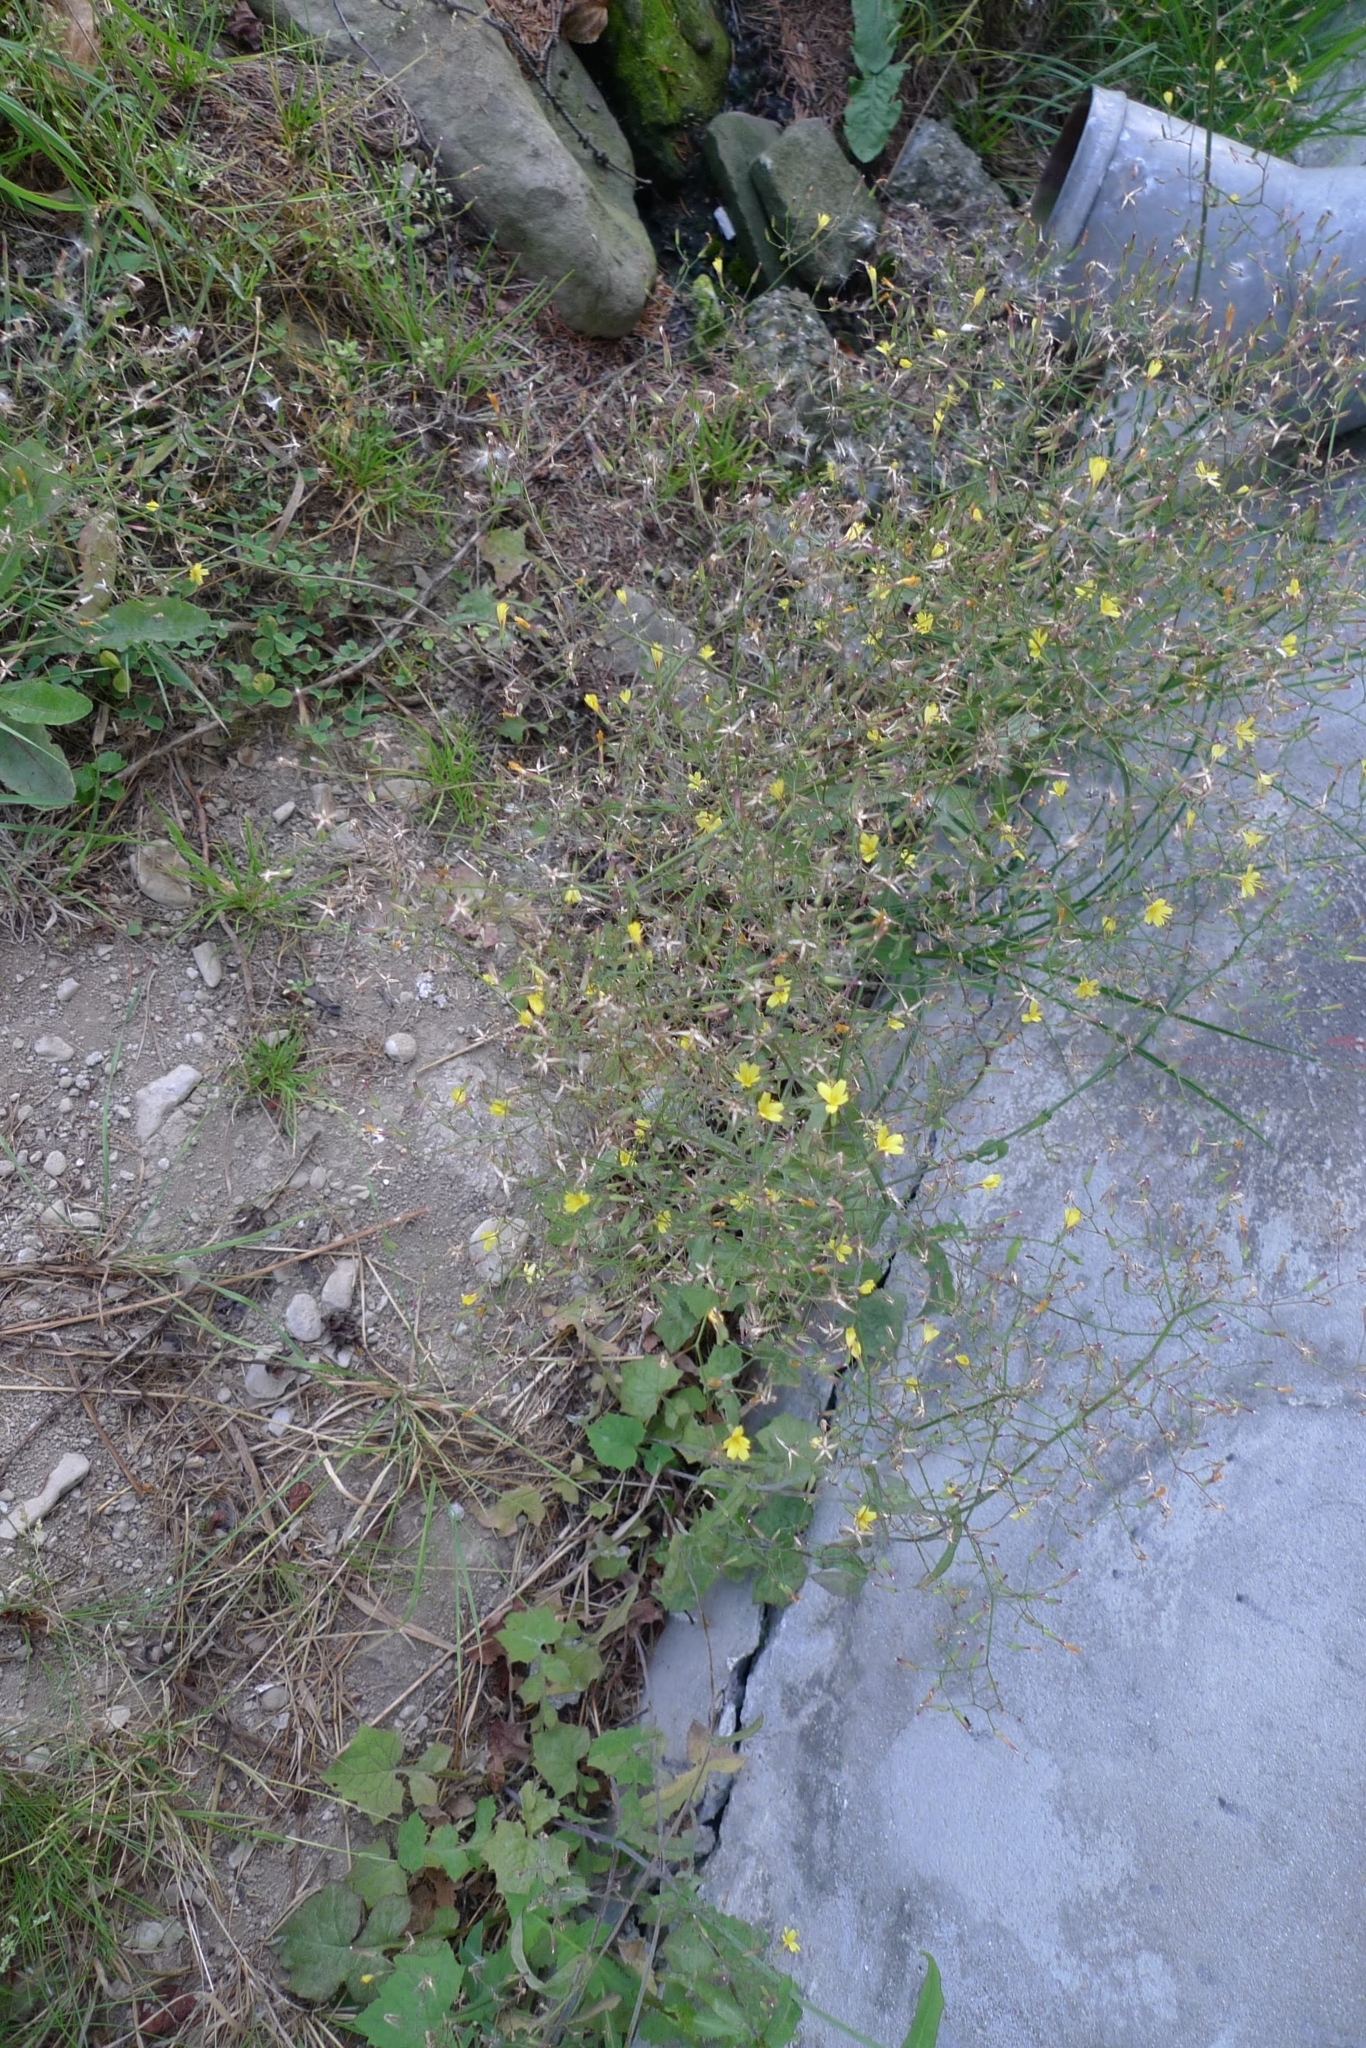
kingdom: Plantae
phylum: Tracheophyta
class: Magnoliopsida
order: Asterales
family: Asteraceae
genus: Mycelis
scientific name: Mycelis muralis
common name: Wall lettuce
